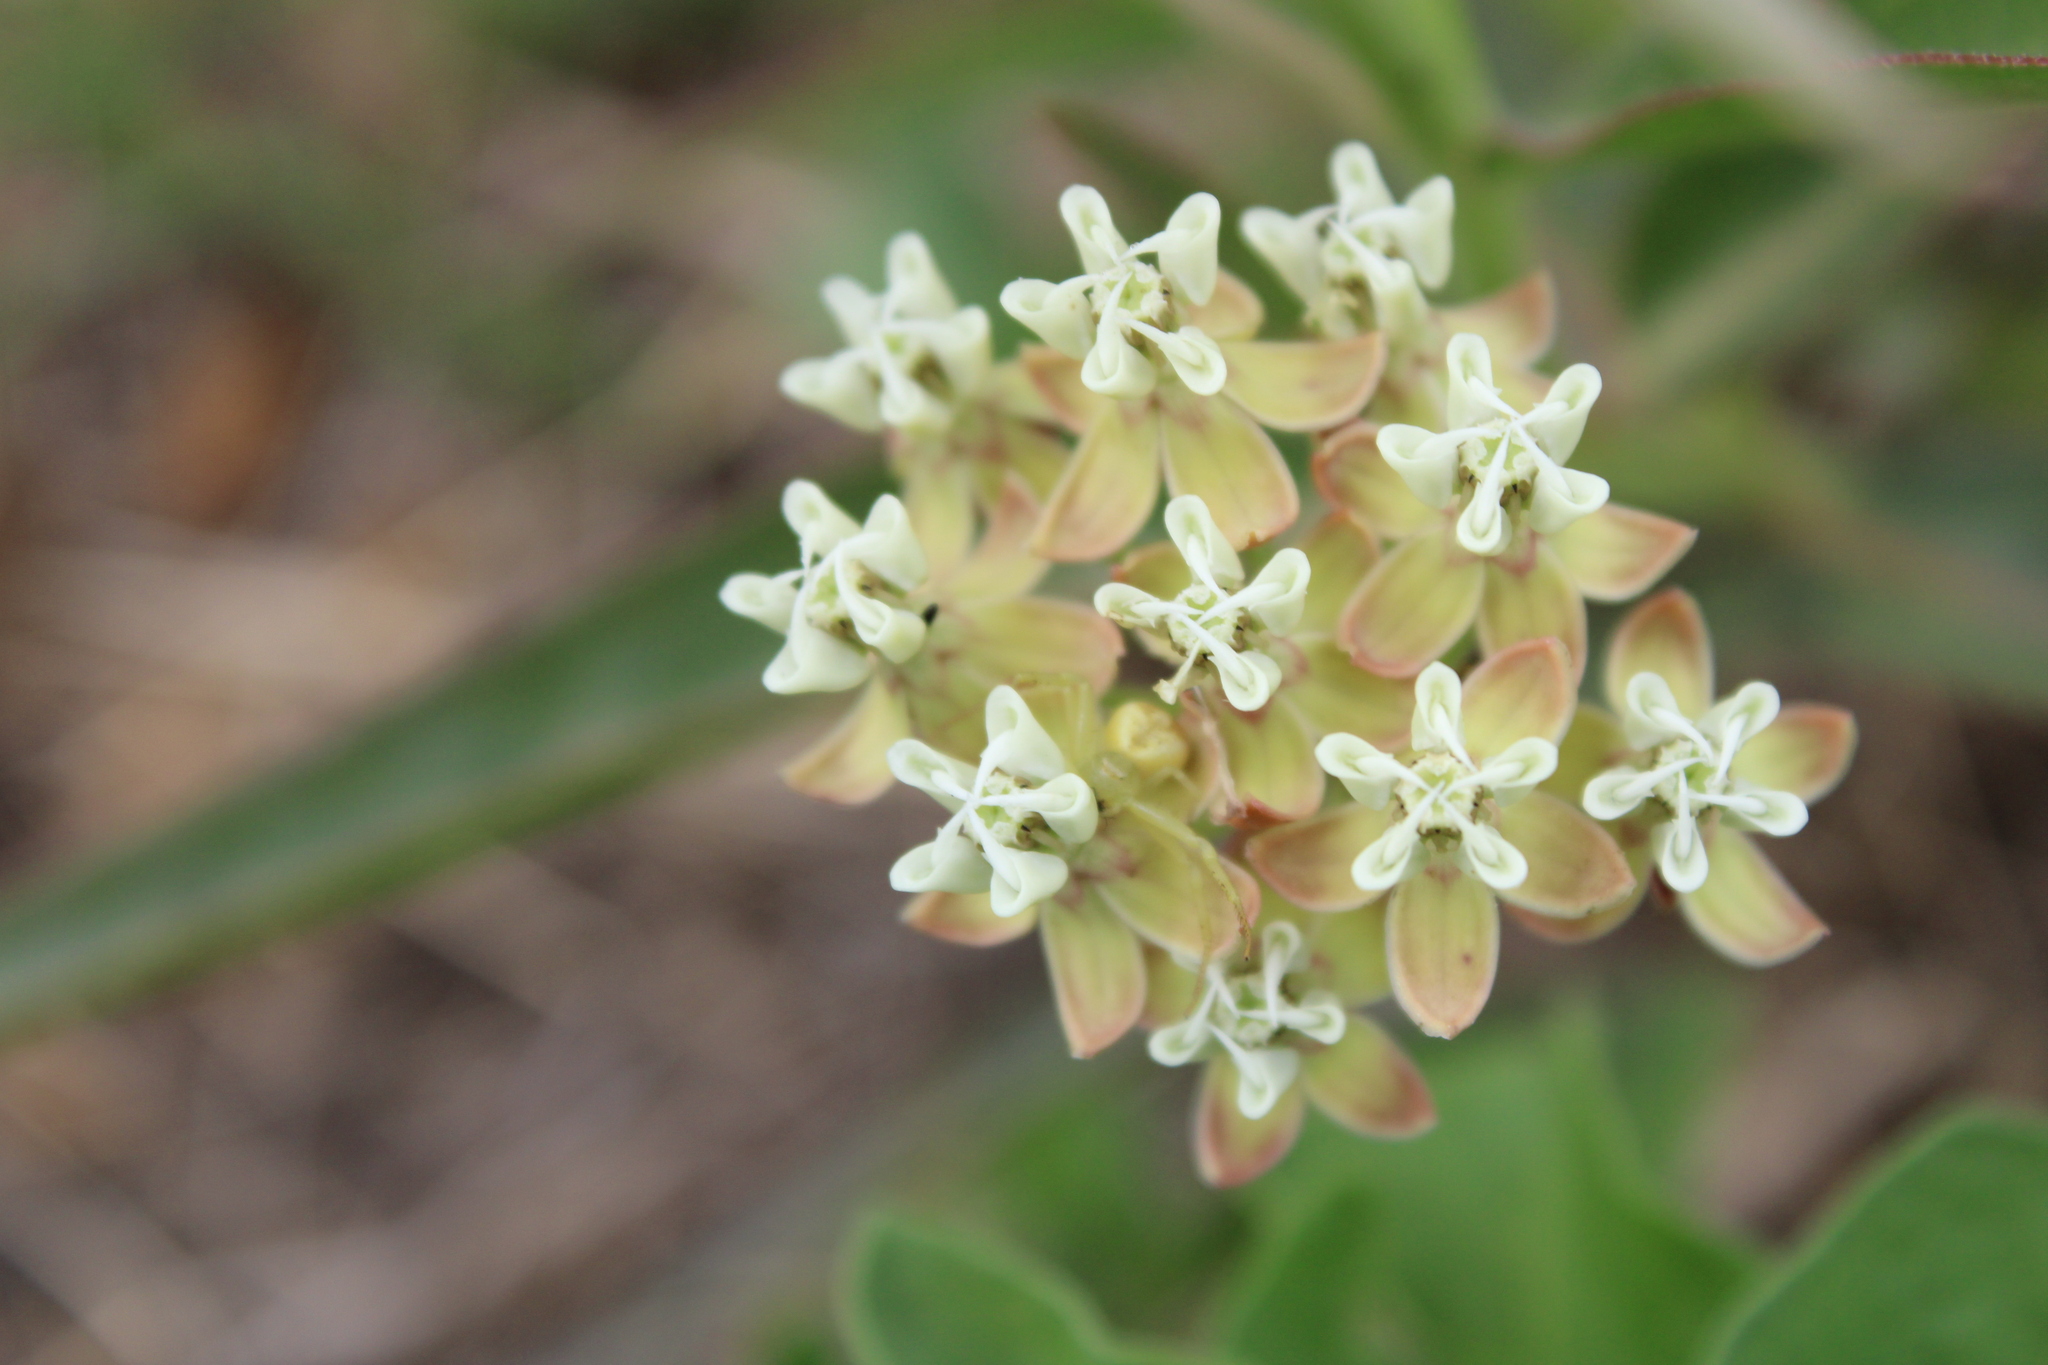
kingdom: Plantae
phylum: Tracheophyta
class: Magnoliopsida
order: Gentianales
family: Apocynaceae
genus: Asclepias
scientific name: Asclepias mellodora
